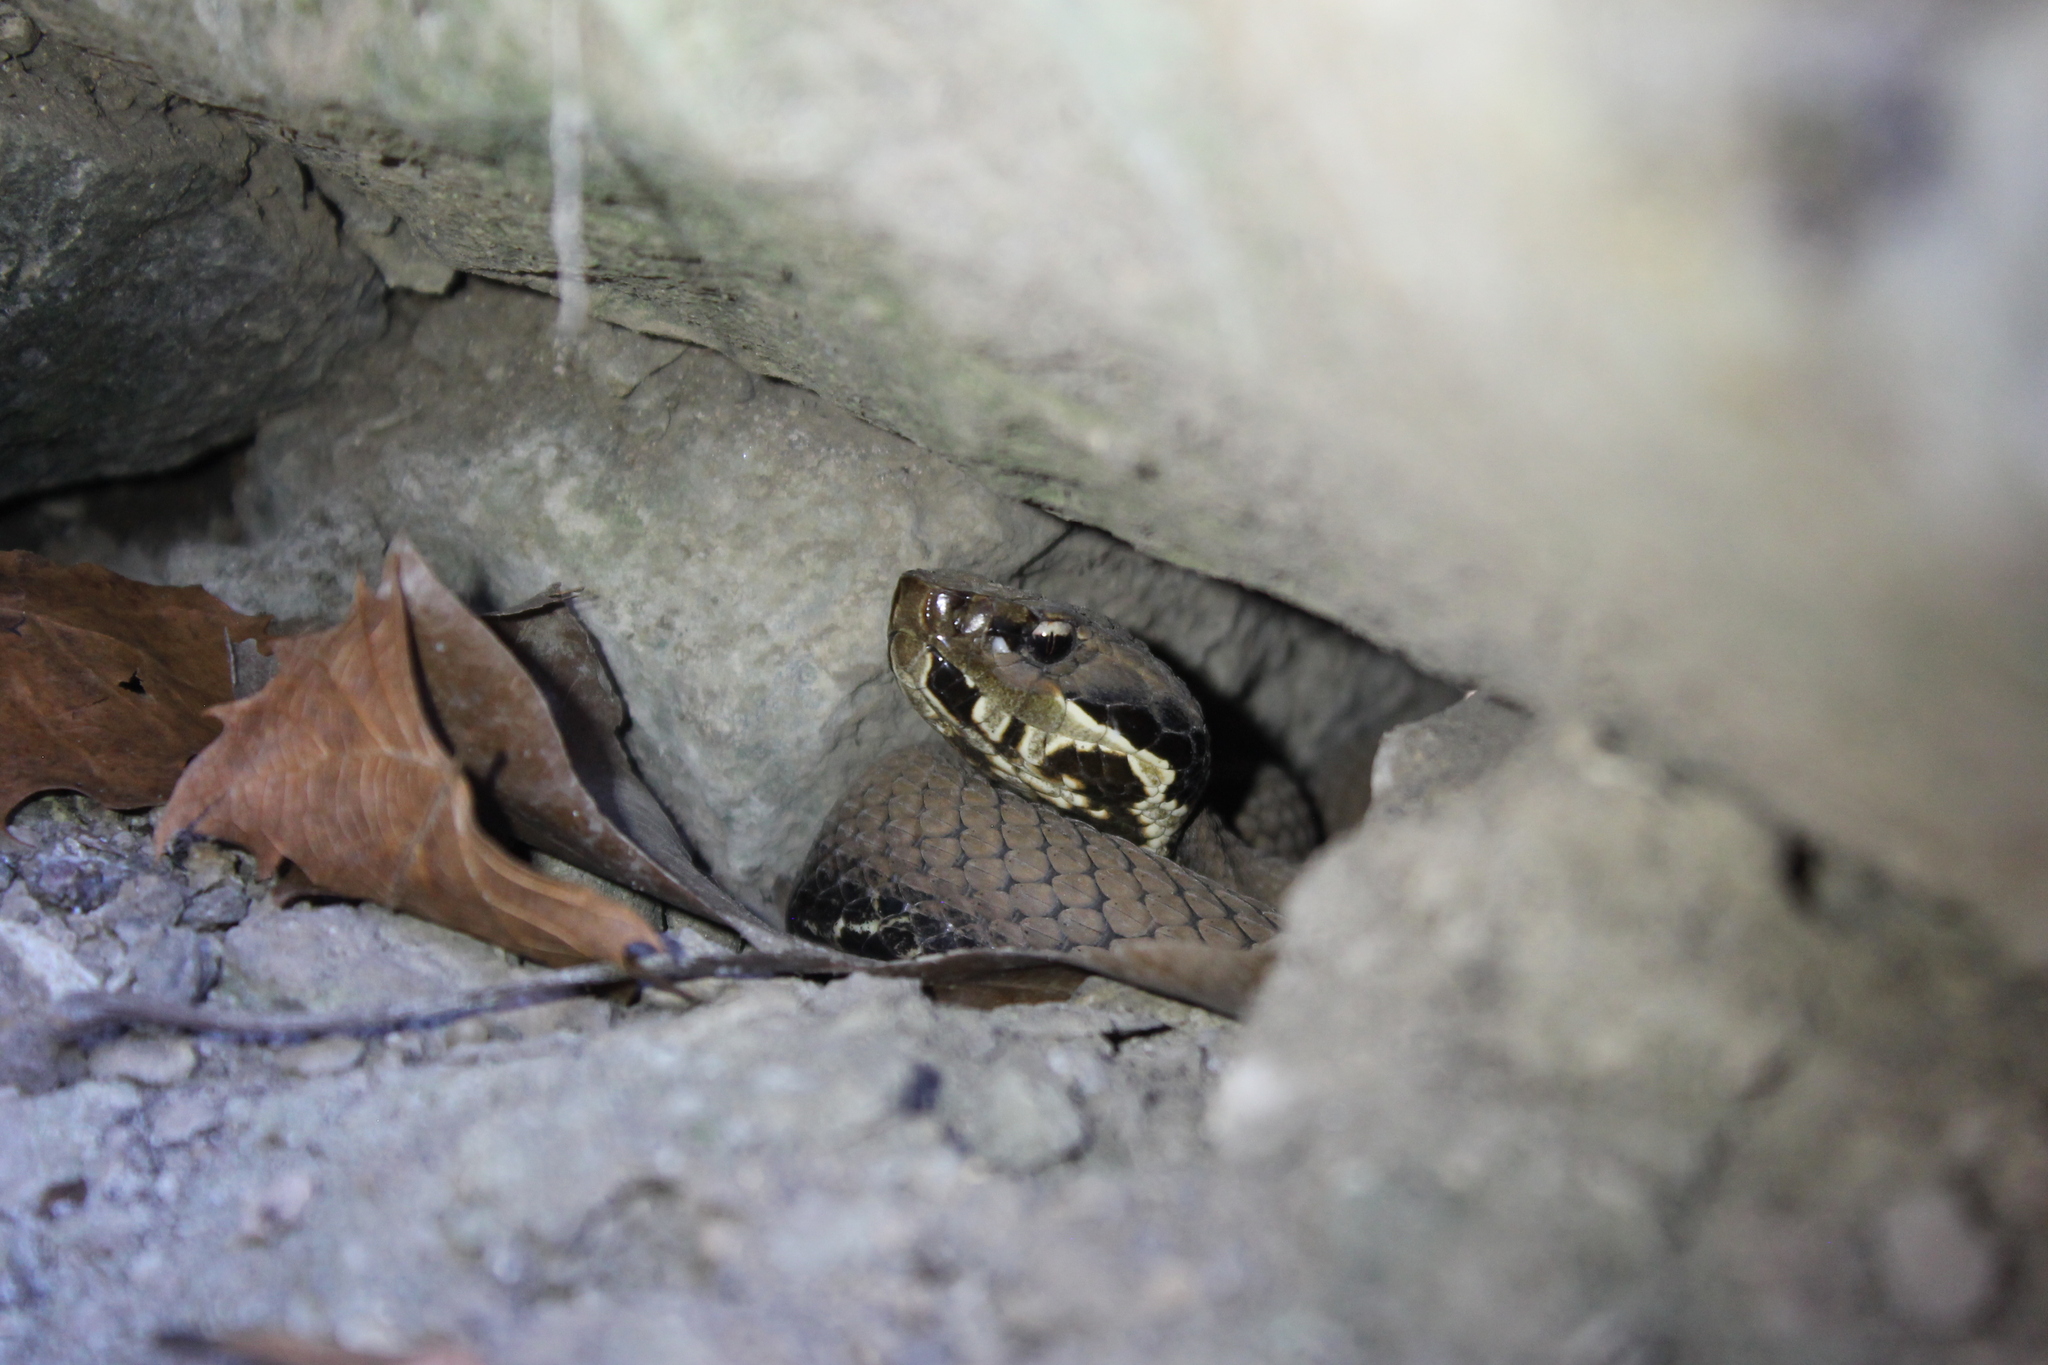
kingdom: Animalia
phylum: Chordata
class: Squamata
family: Viperidae
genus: Agkistrodon
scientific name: Agkistrodon piscivorus
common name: Cottonmouth
